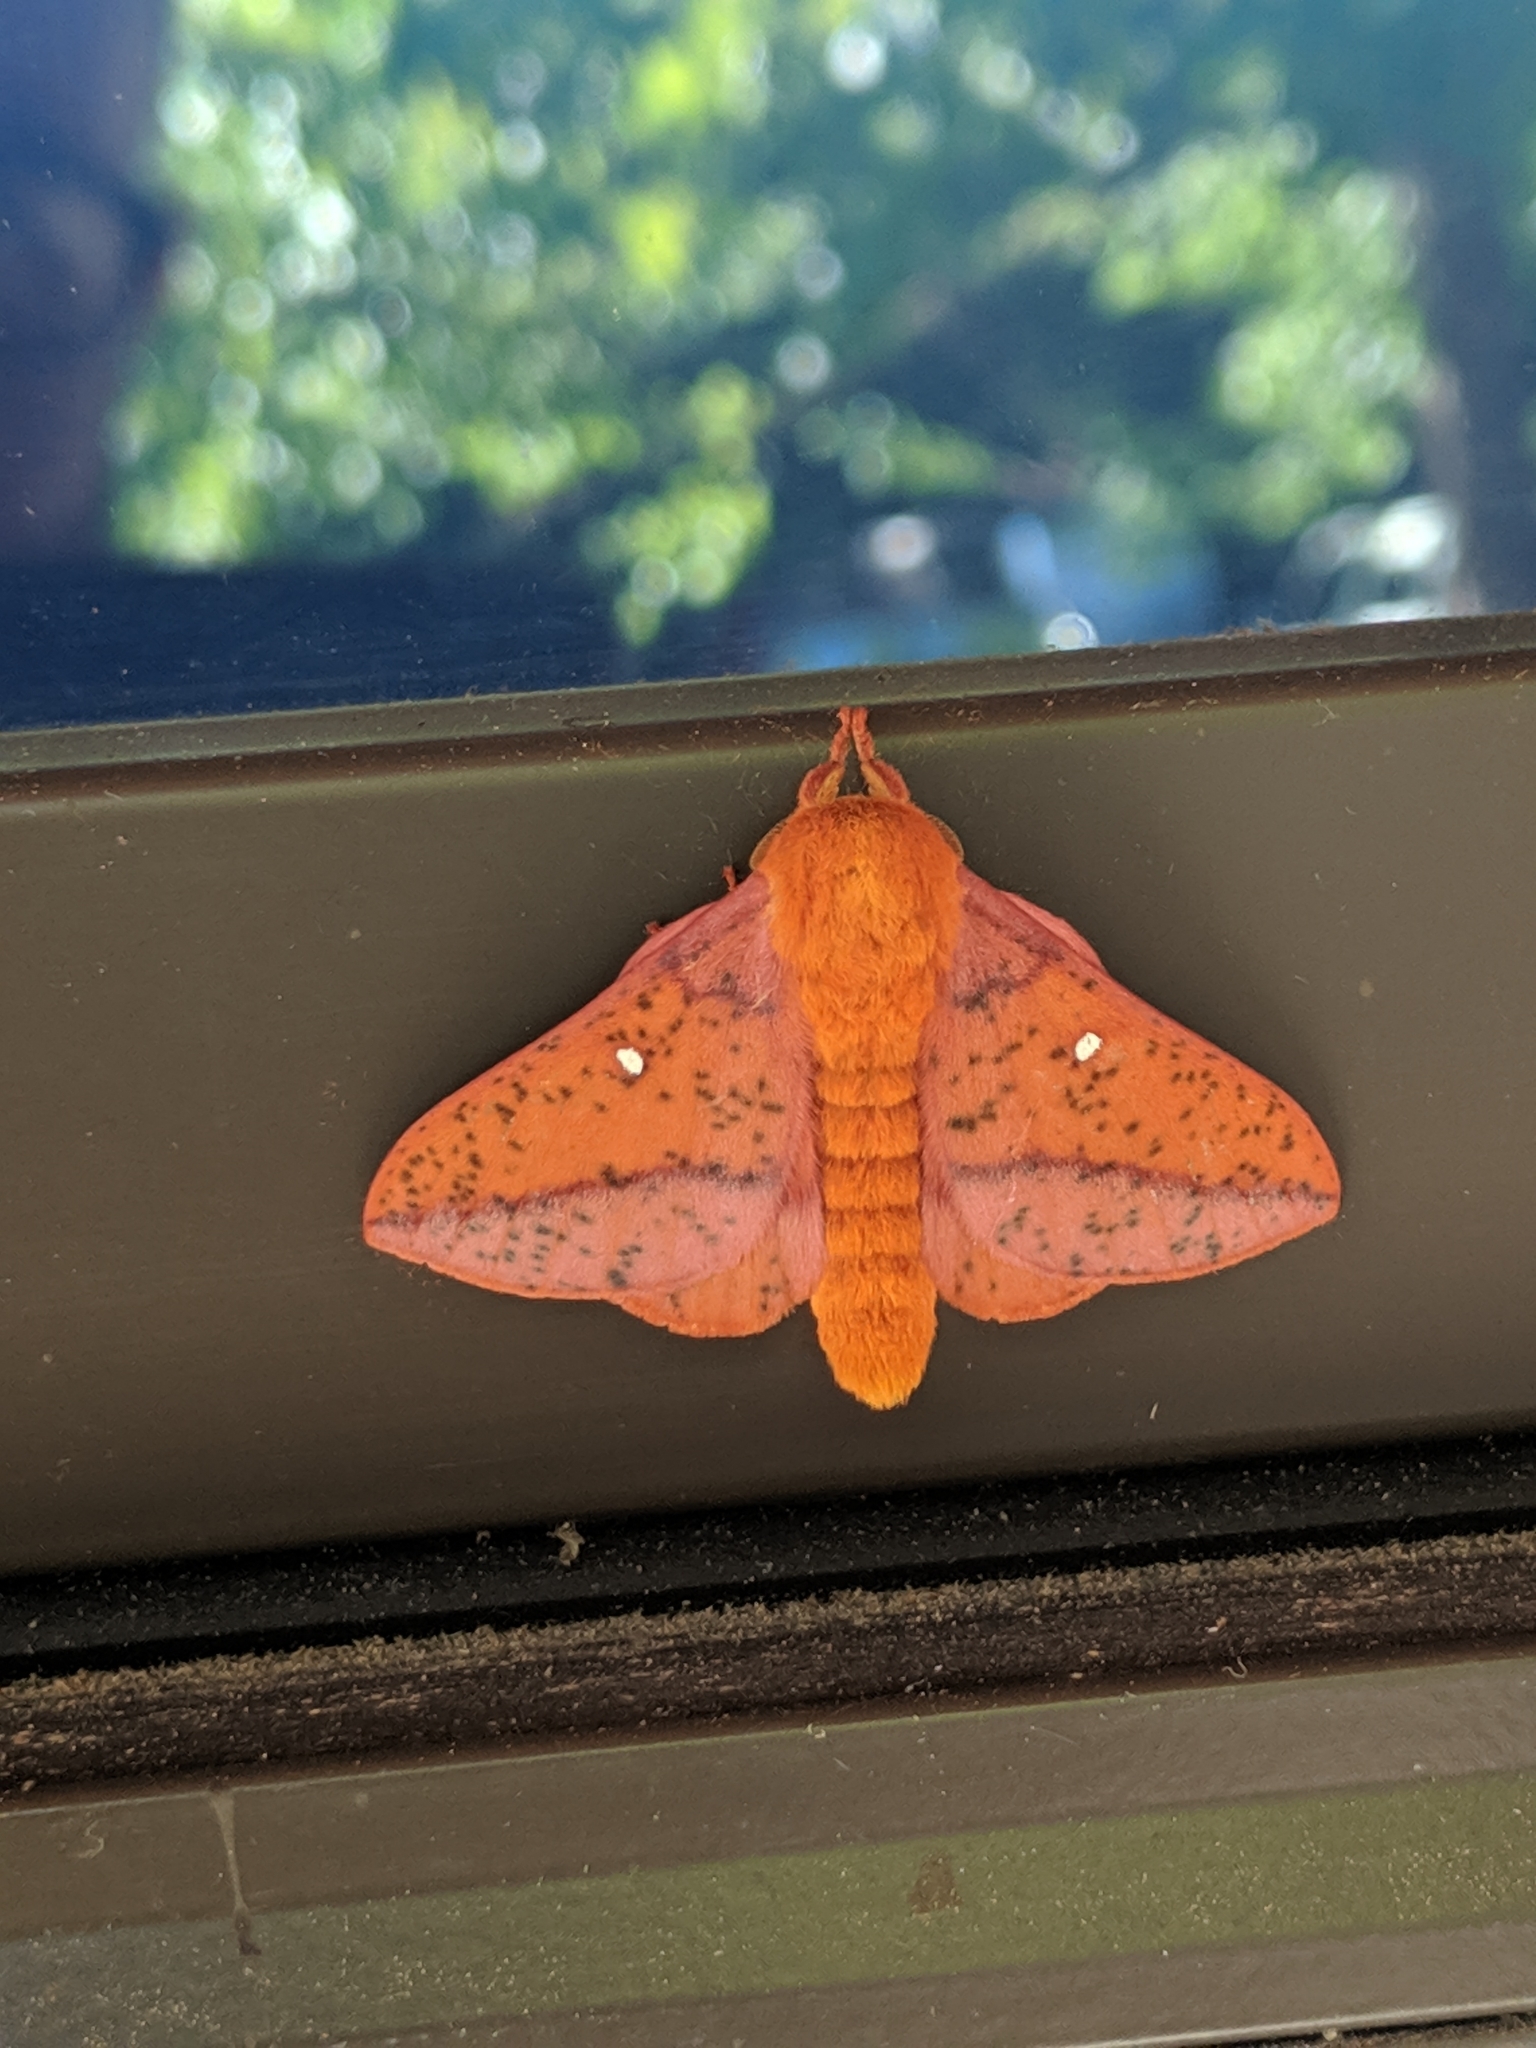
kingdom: Animalia
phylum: Arthropoda
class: Insecta
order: Lepidoptera
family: Saturniidae
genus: Anisota
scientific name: Anisota stigma
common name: Spiny oakworm moth
